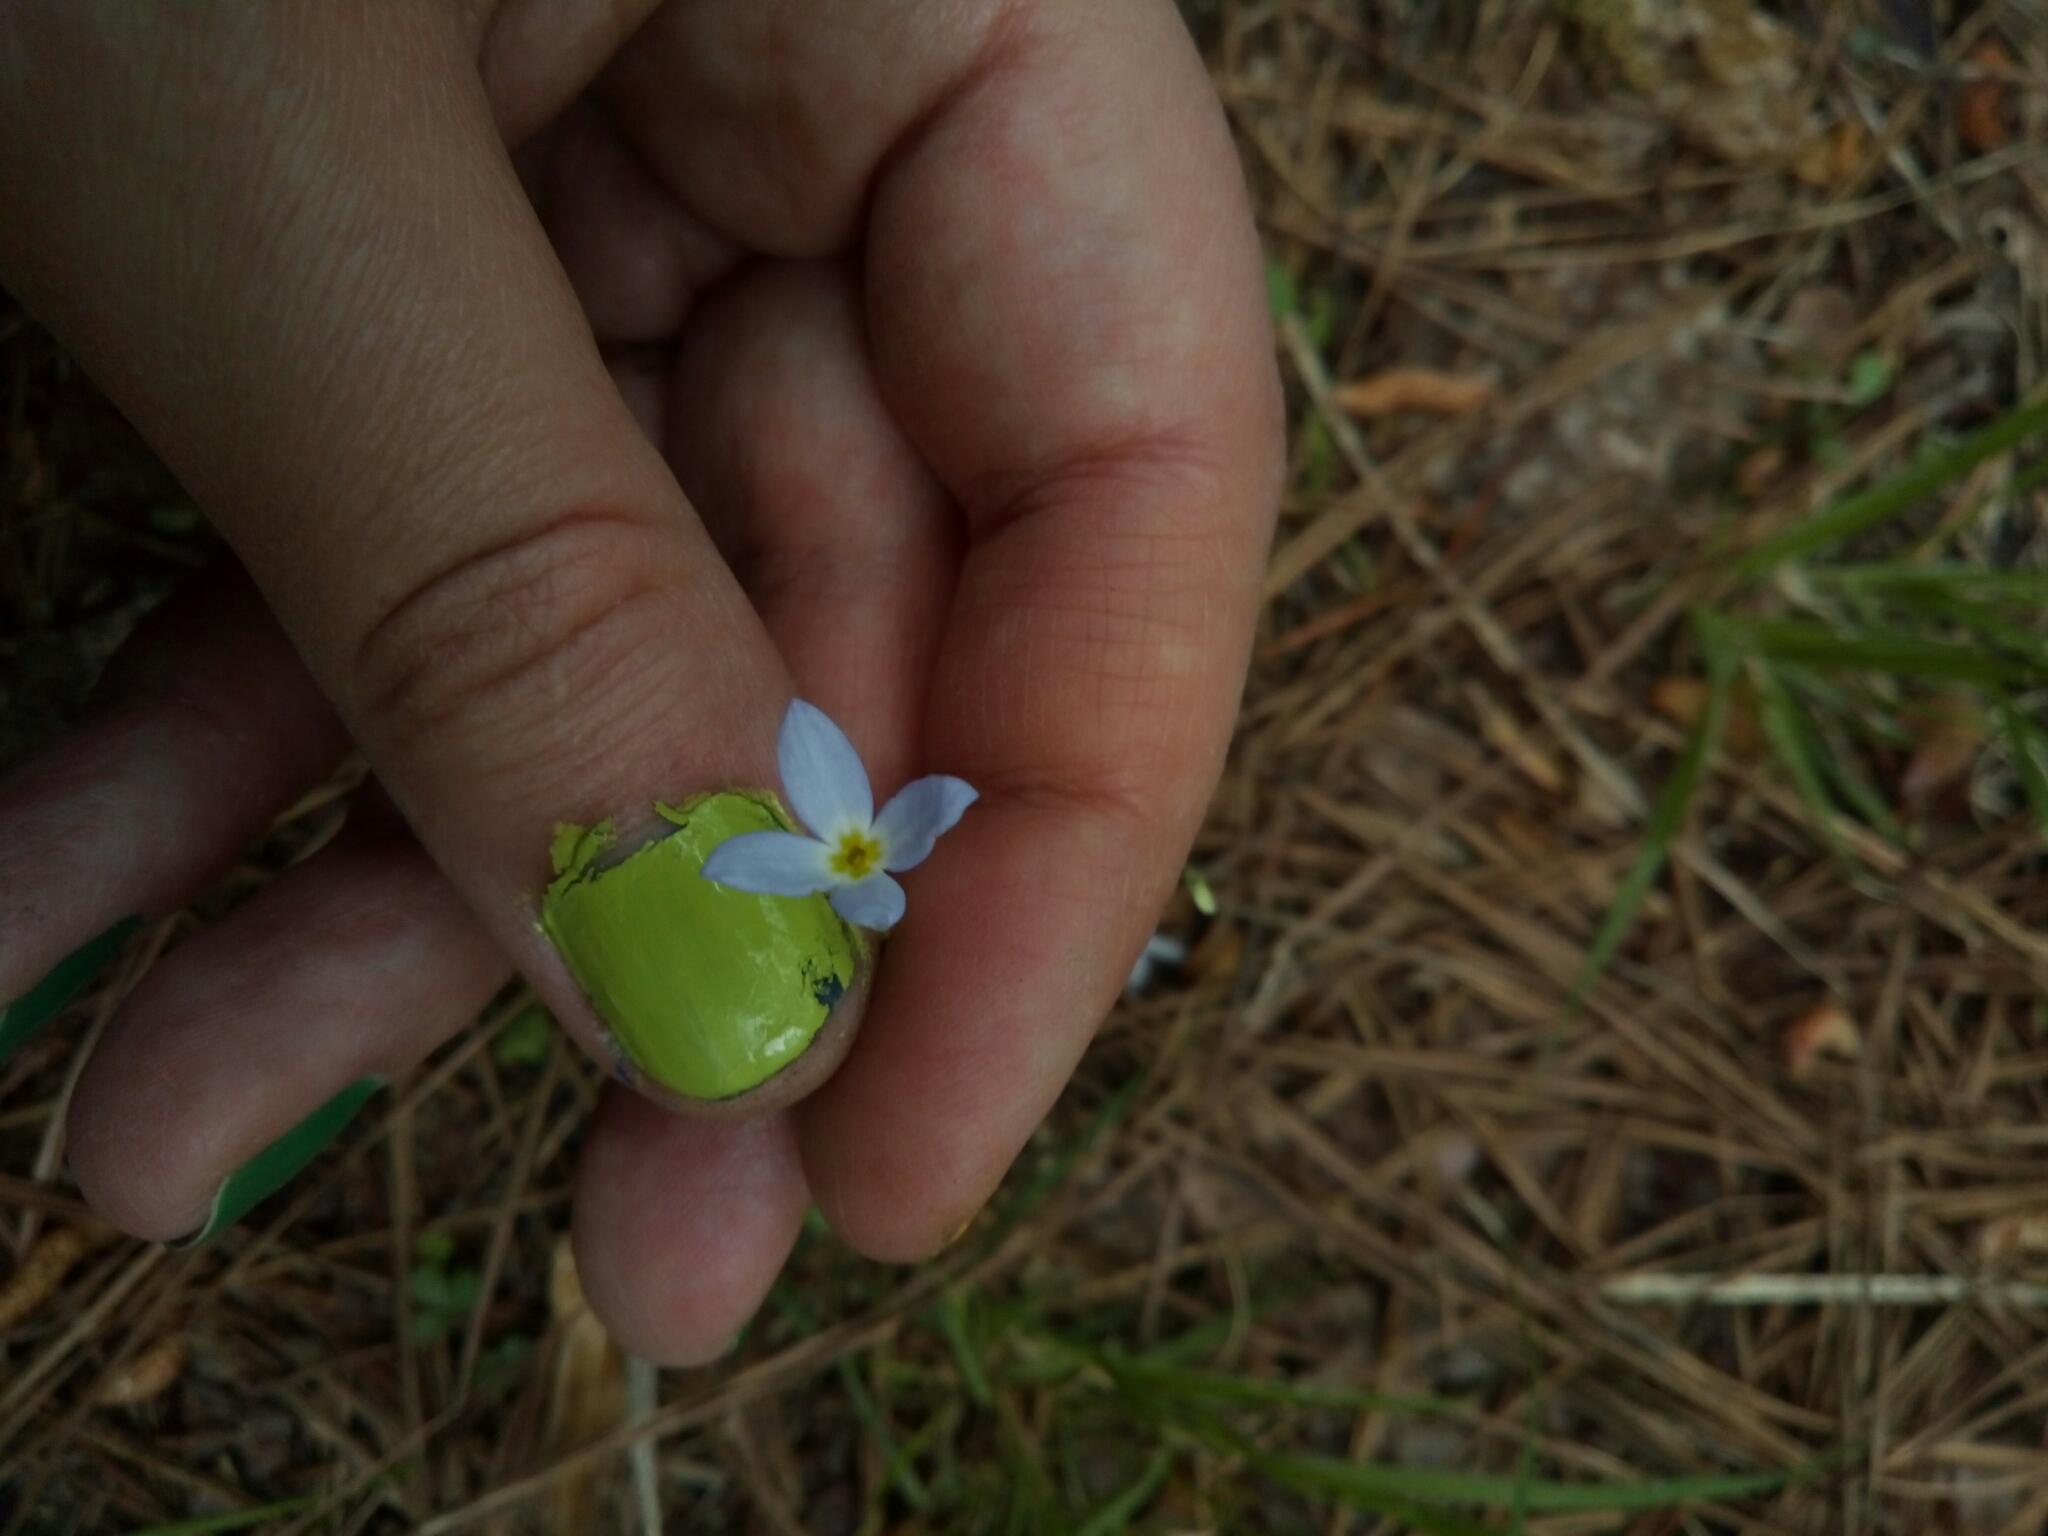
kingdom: Plantae
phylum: Tracheophyta
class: Magnoliopsida
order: Gentianales
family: Rubiaceae
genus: Houstonia
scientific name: Houstonia caerulea
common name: Bluets
